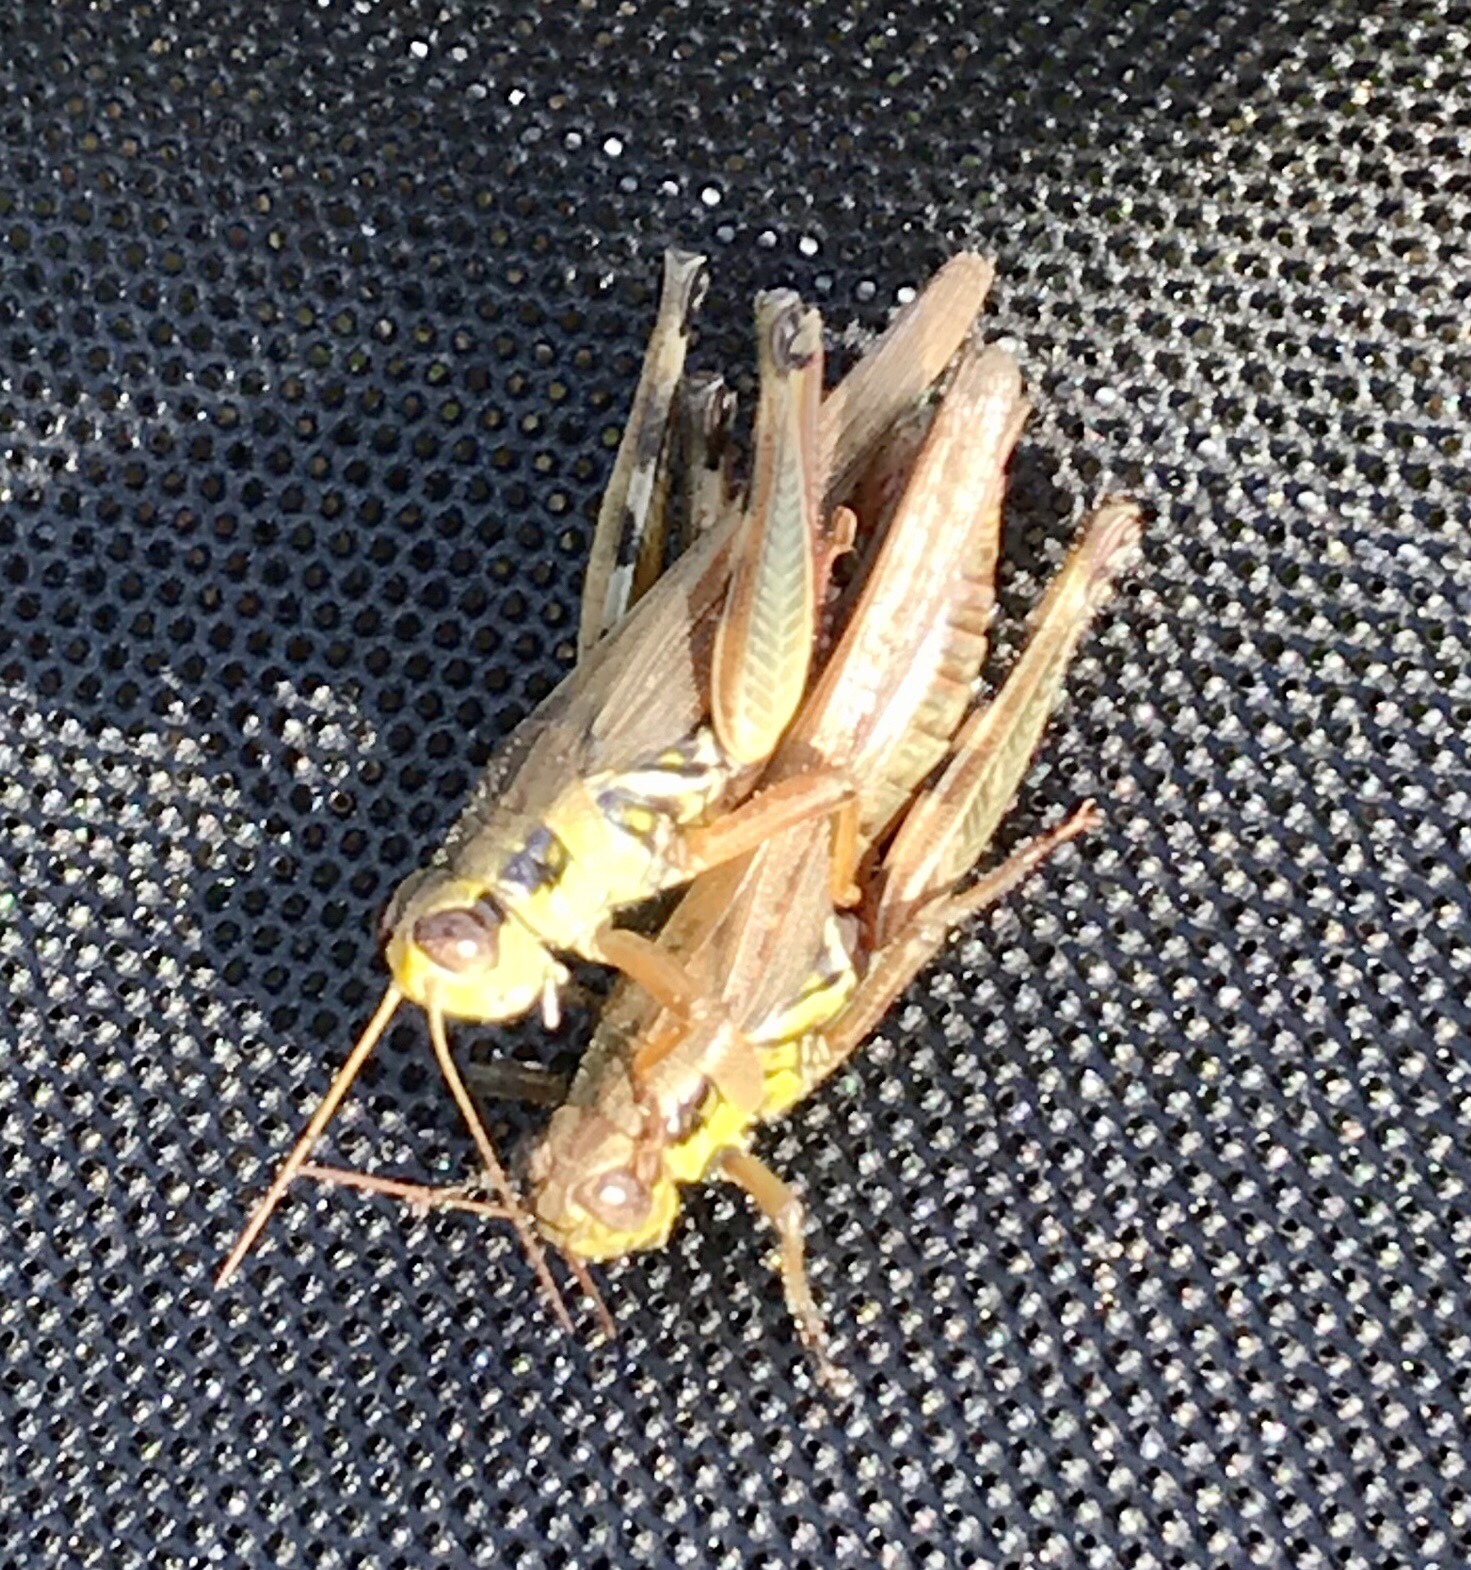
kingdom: Animalia
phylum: Arthropoda
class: Insecta
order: Orthoptera
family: Acrididae
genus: Melanoplus
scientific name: Melanoplus femurrubrum
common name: Red-legged grasshopper
